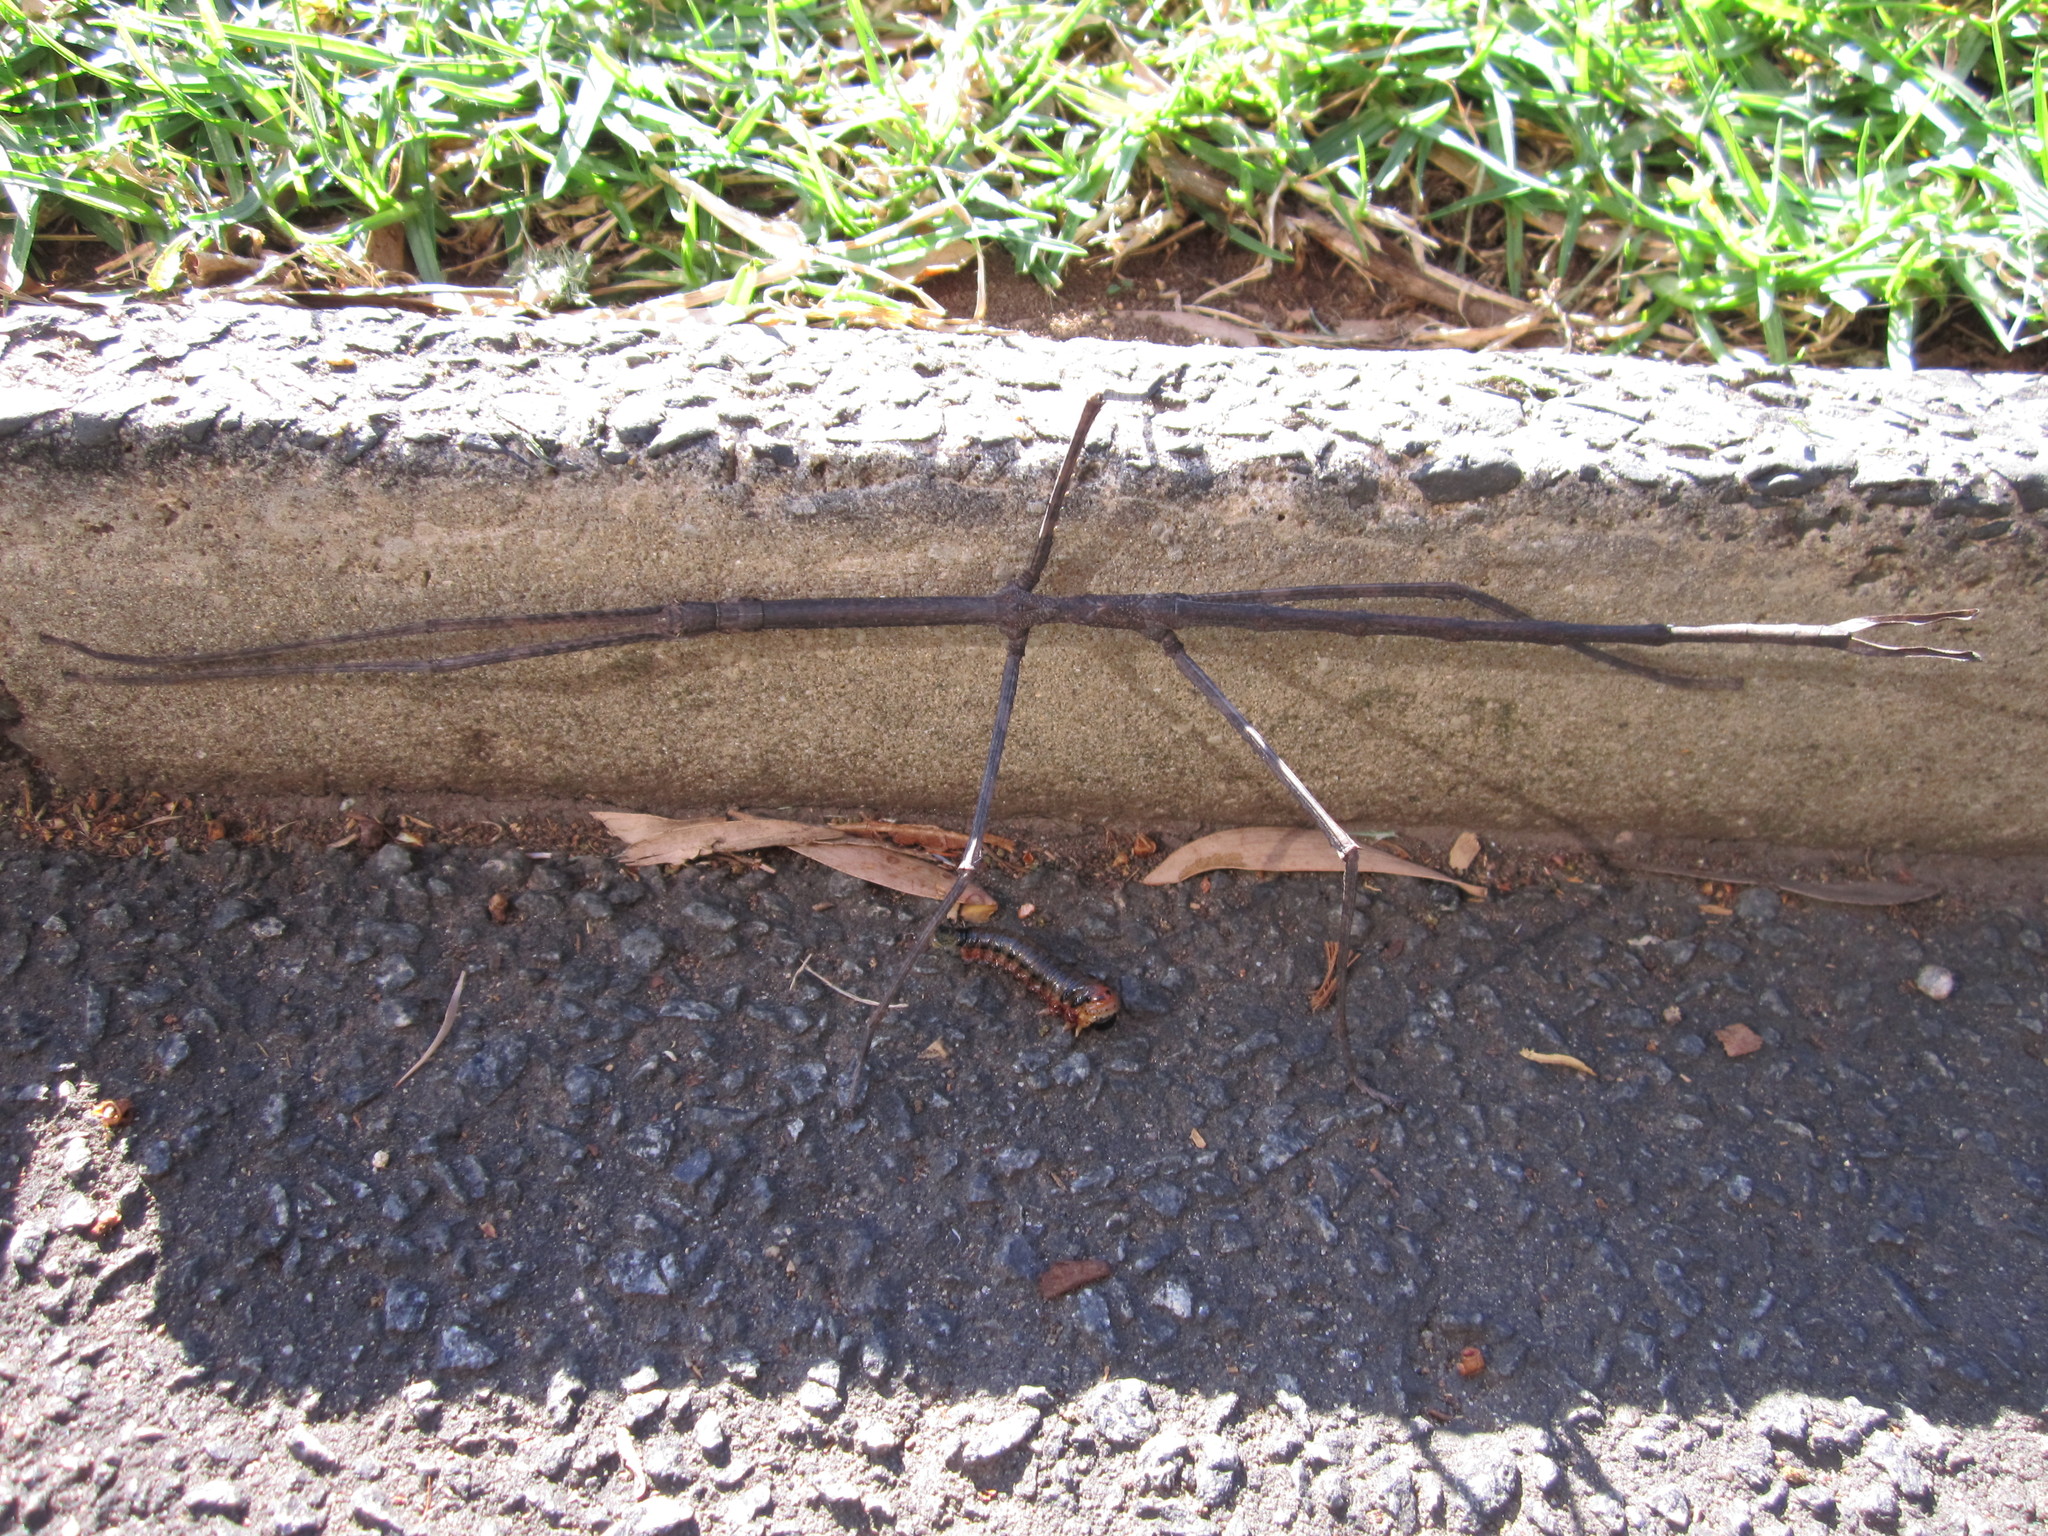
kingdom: Animalia
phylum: Arthropoda
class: Insecta
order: Phasmida
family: Phasmatidae
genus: Ctenomorpha
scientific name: Ctenomorpha marginipennis
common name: Margined-winged stick-insect
